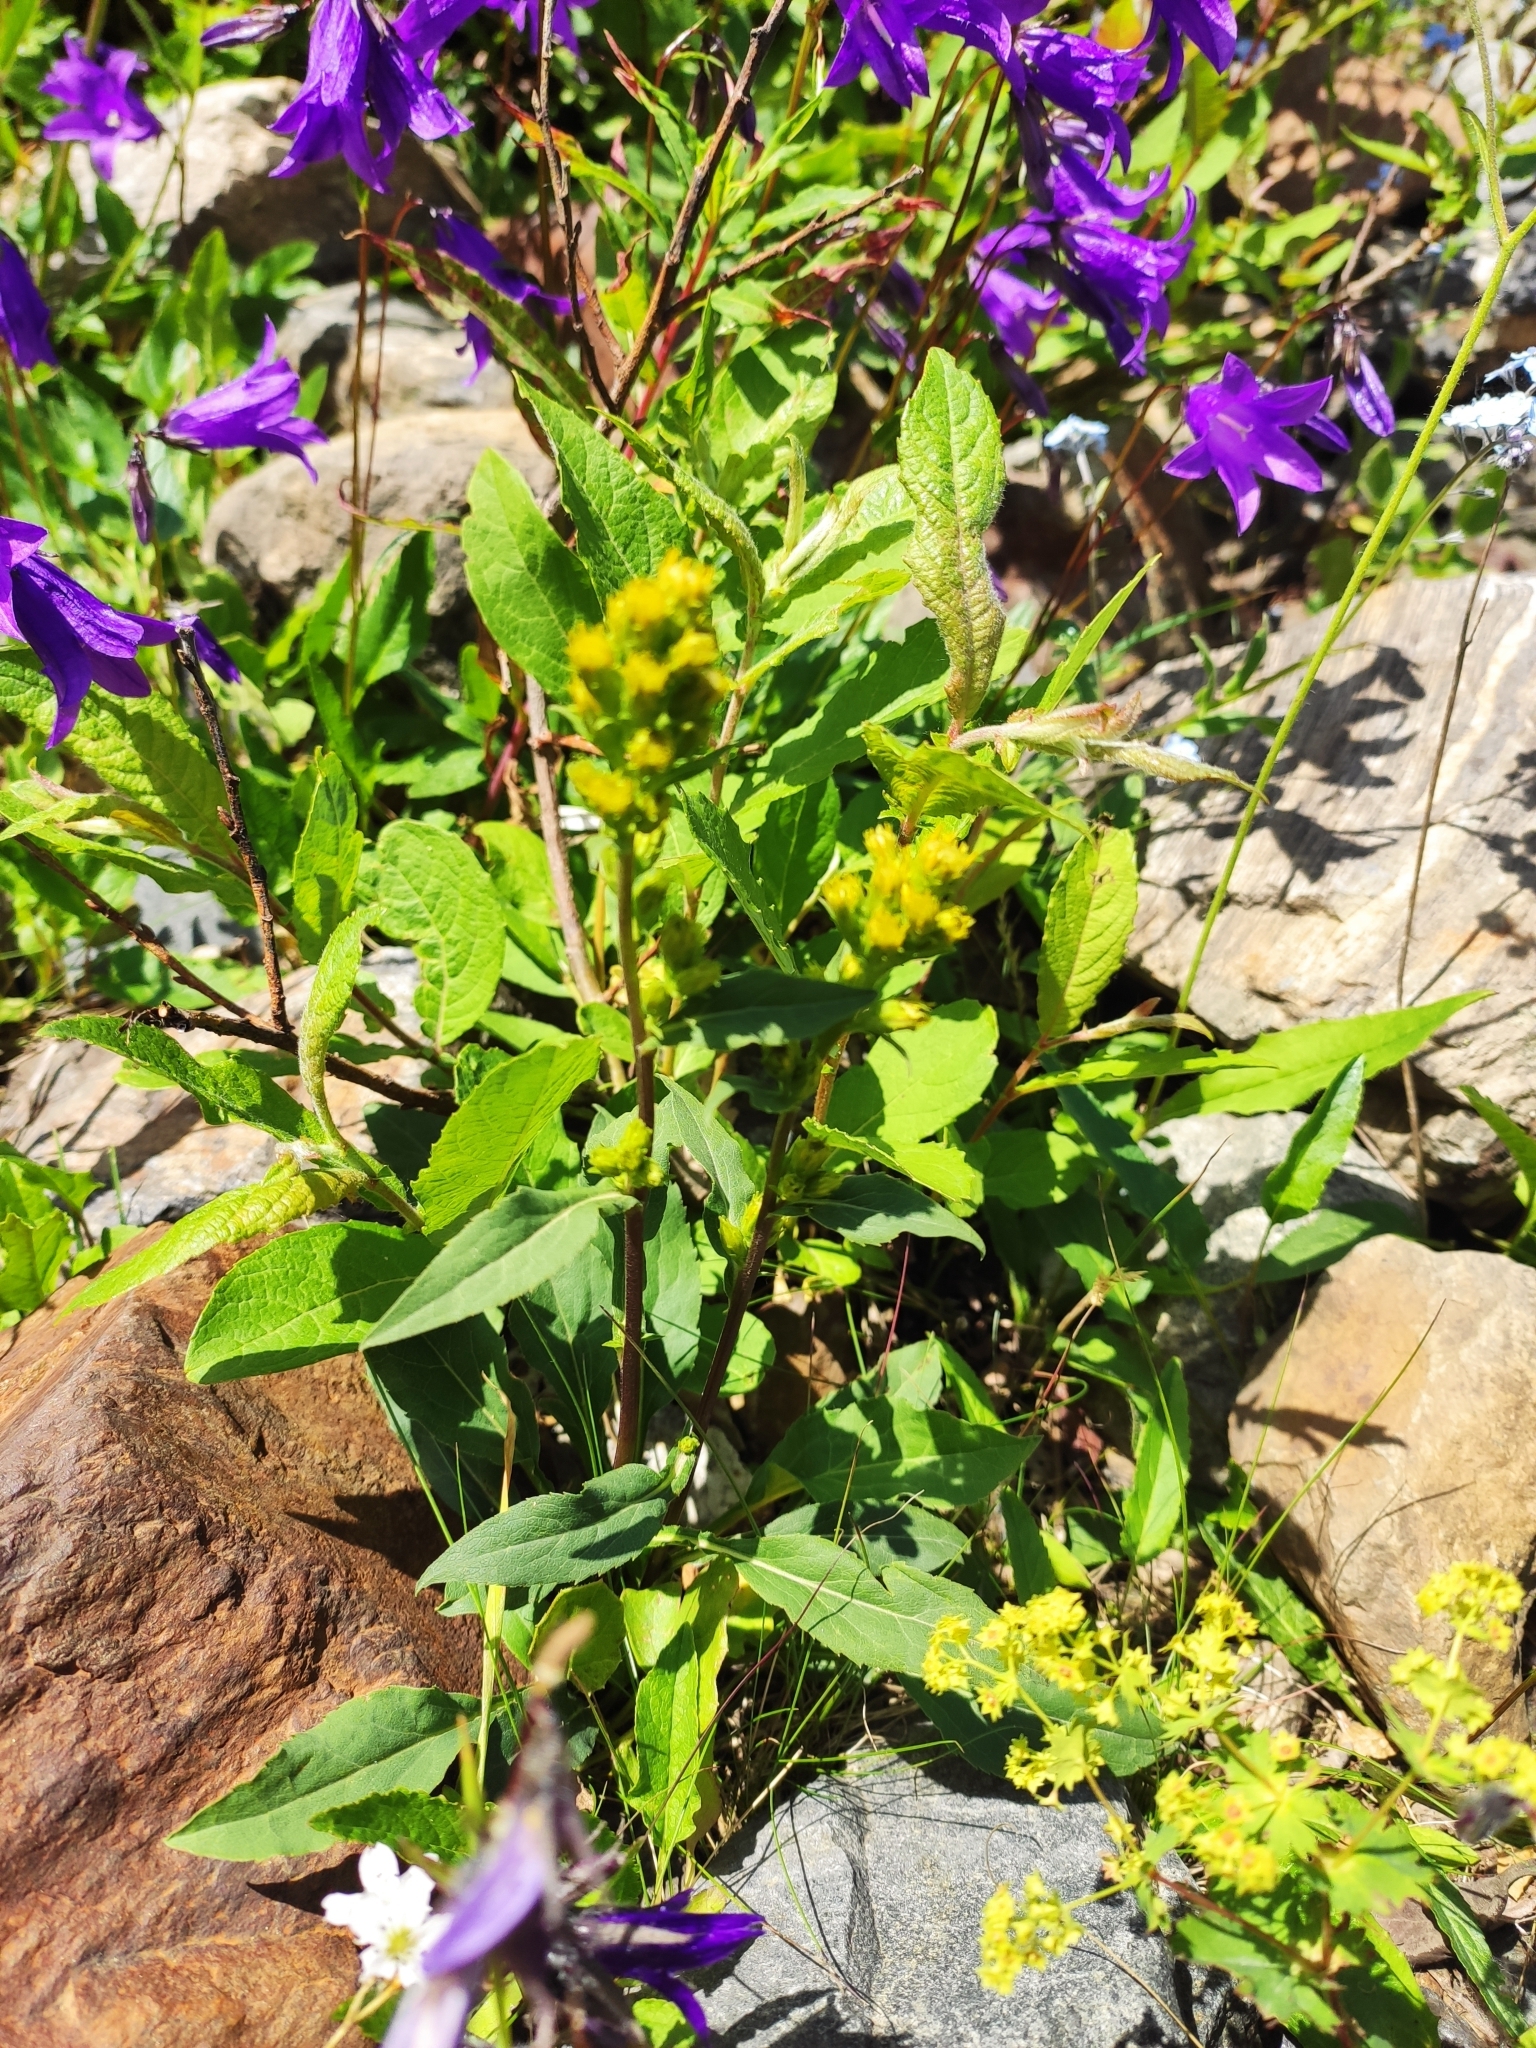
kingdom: Plantae
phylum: Tracheophyta
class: Magnoliopsida
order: Asterales
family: Asteraceae
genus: Solidago
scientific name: Solidago virgaurea
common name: Goldenrod
